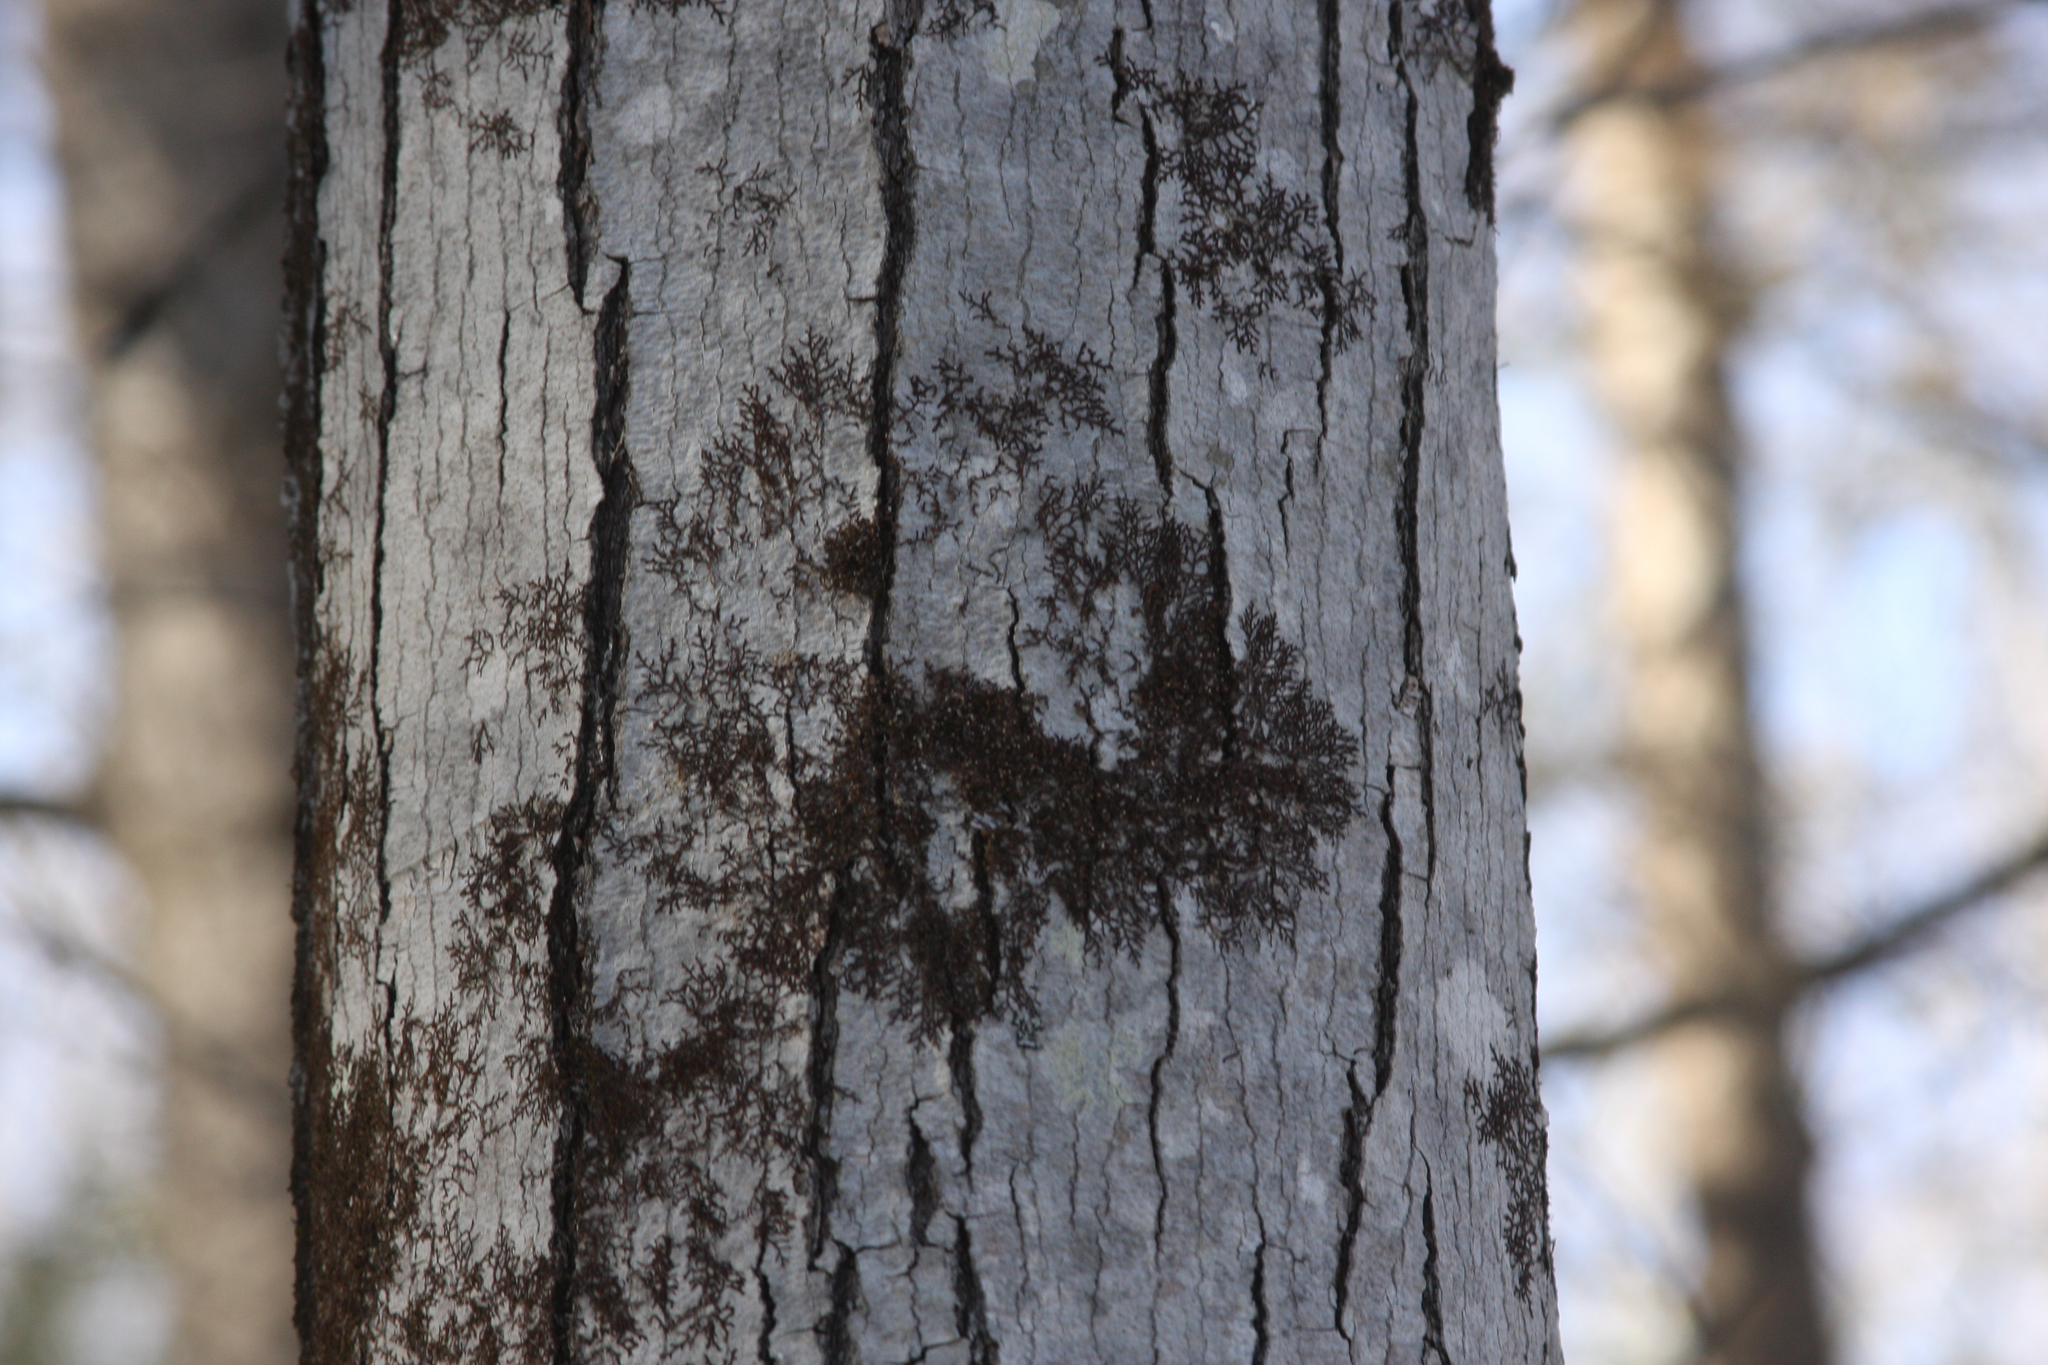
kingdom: Plantae
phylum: Marchantiophyta
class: Jungermanniopsida
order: Porellales
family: Frullaniaceae
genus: Frullania
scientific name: Frullania eboracensis
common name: New york scalewort
